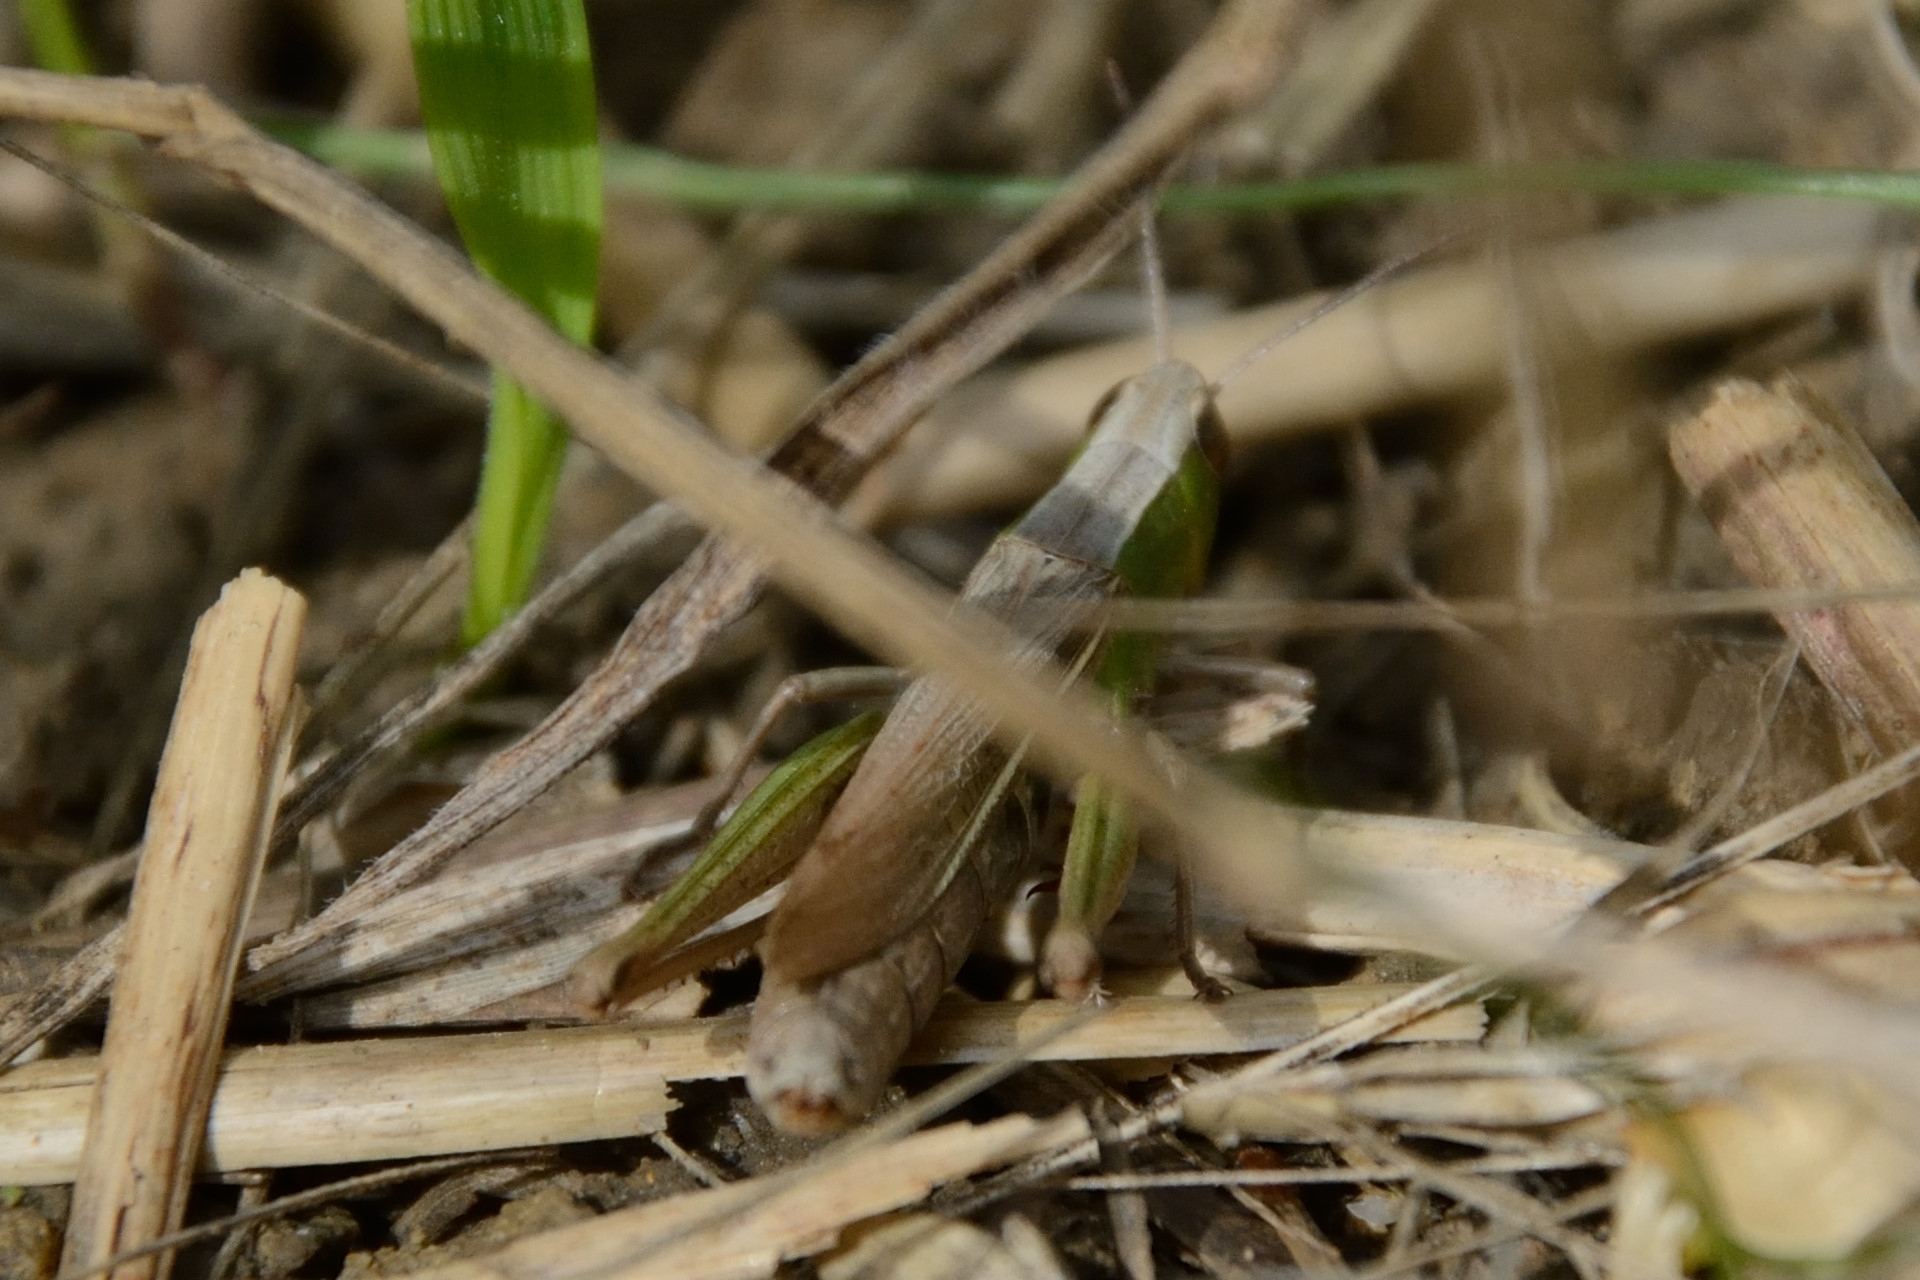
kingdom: Animalia
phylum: Arthropoda
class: Insecta
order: Orthoptera
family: Acrididae
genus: Chorthippus
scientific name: Chorthippus albomarginatus
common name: Lesser marsh grasshopper
